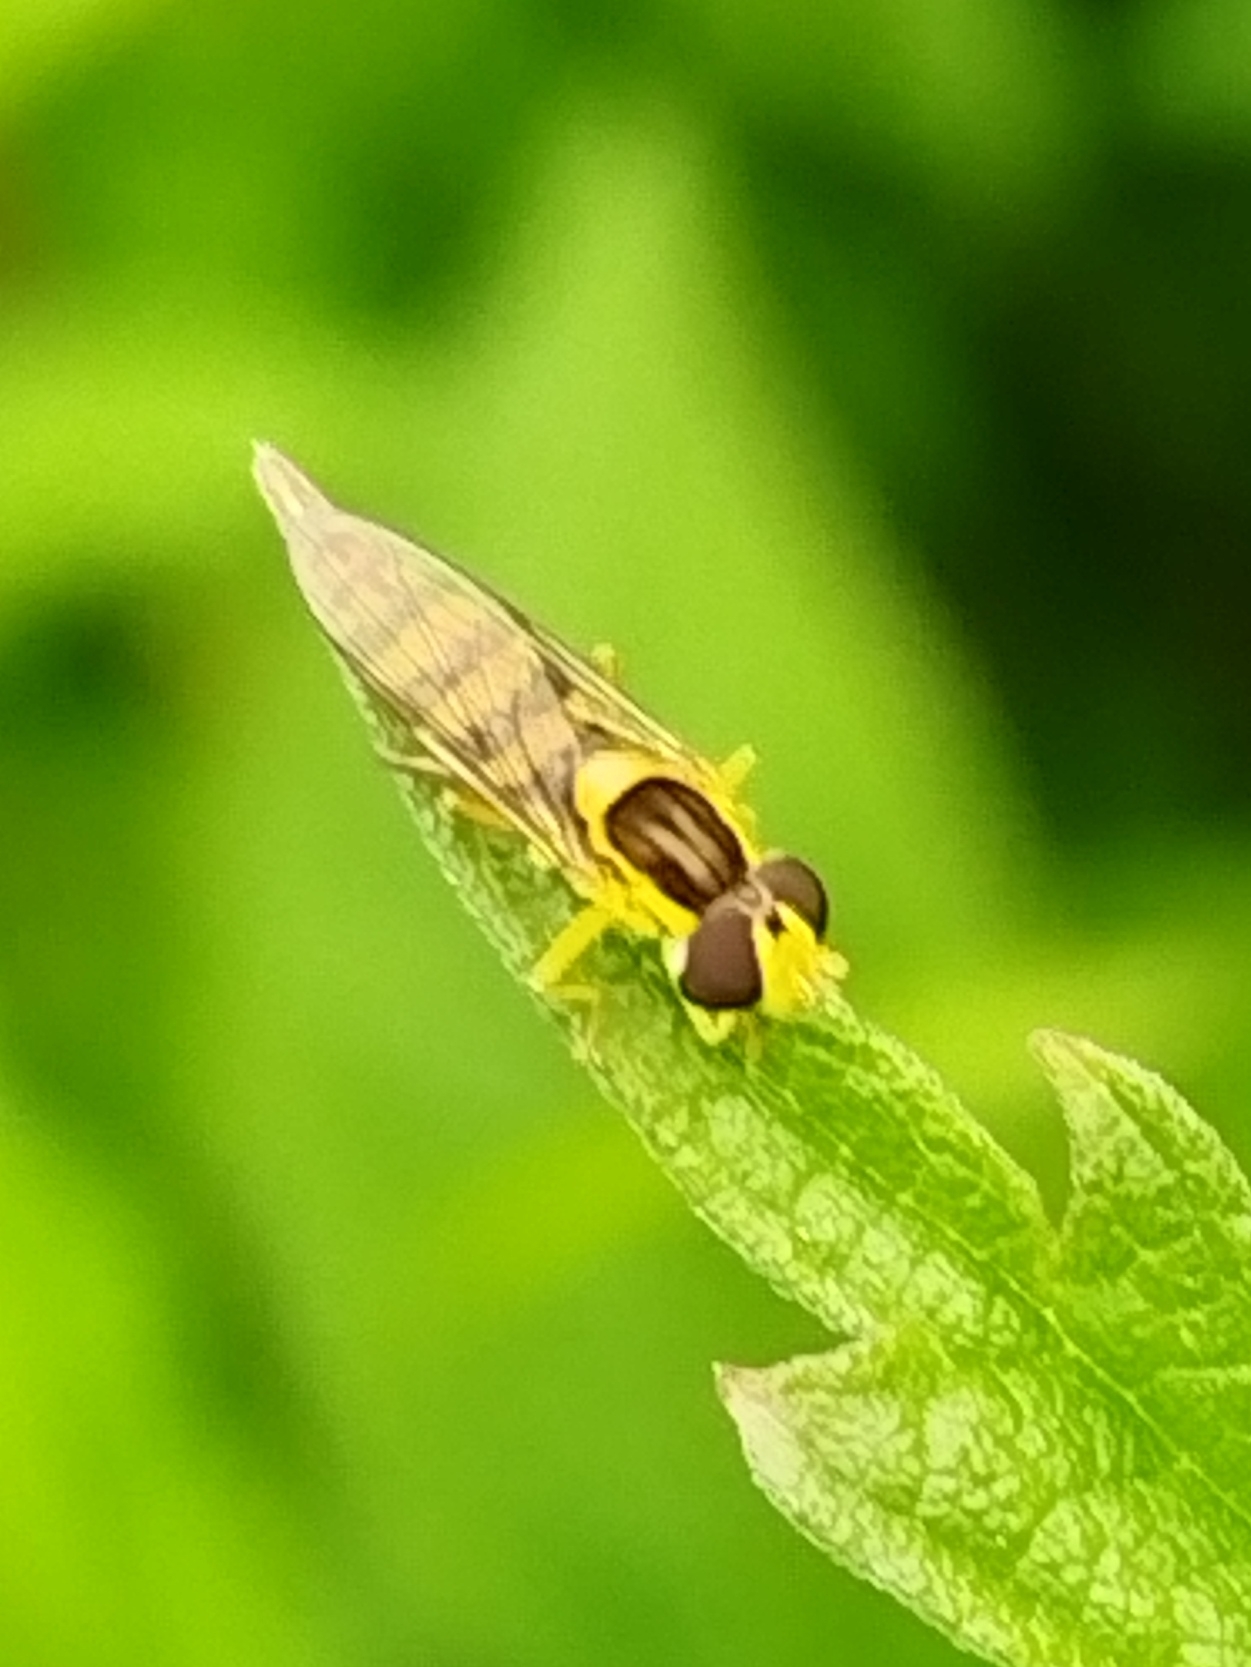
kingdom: Animalia
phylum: Arthropoda
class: Insecta
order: Diptera
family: Syrphidae
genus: Sphaerophoria
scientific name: Sphaerophoria
